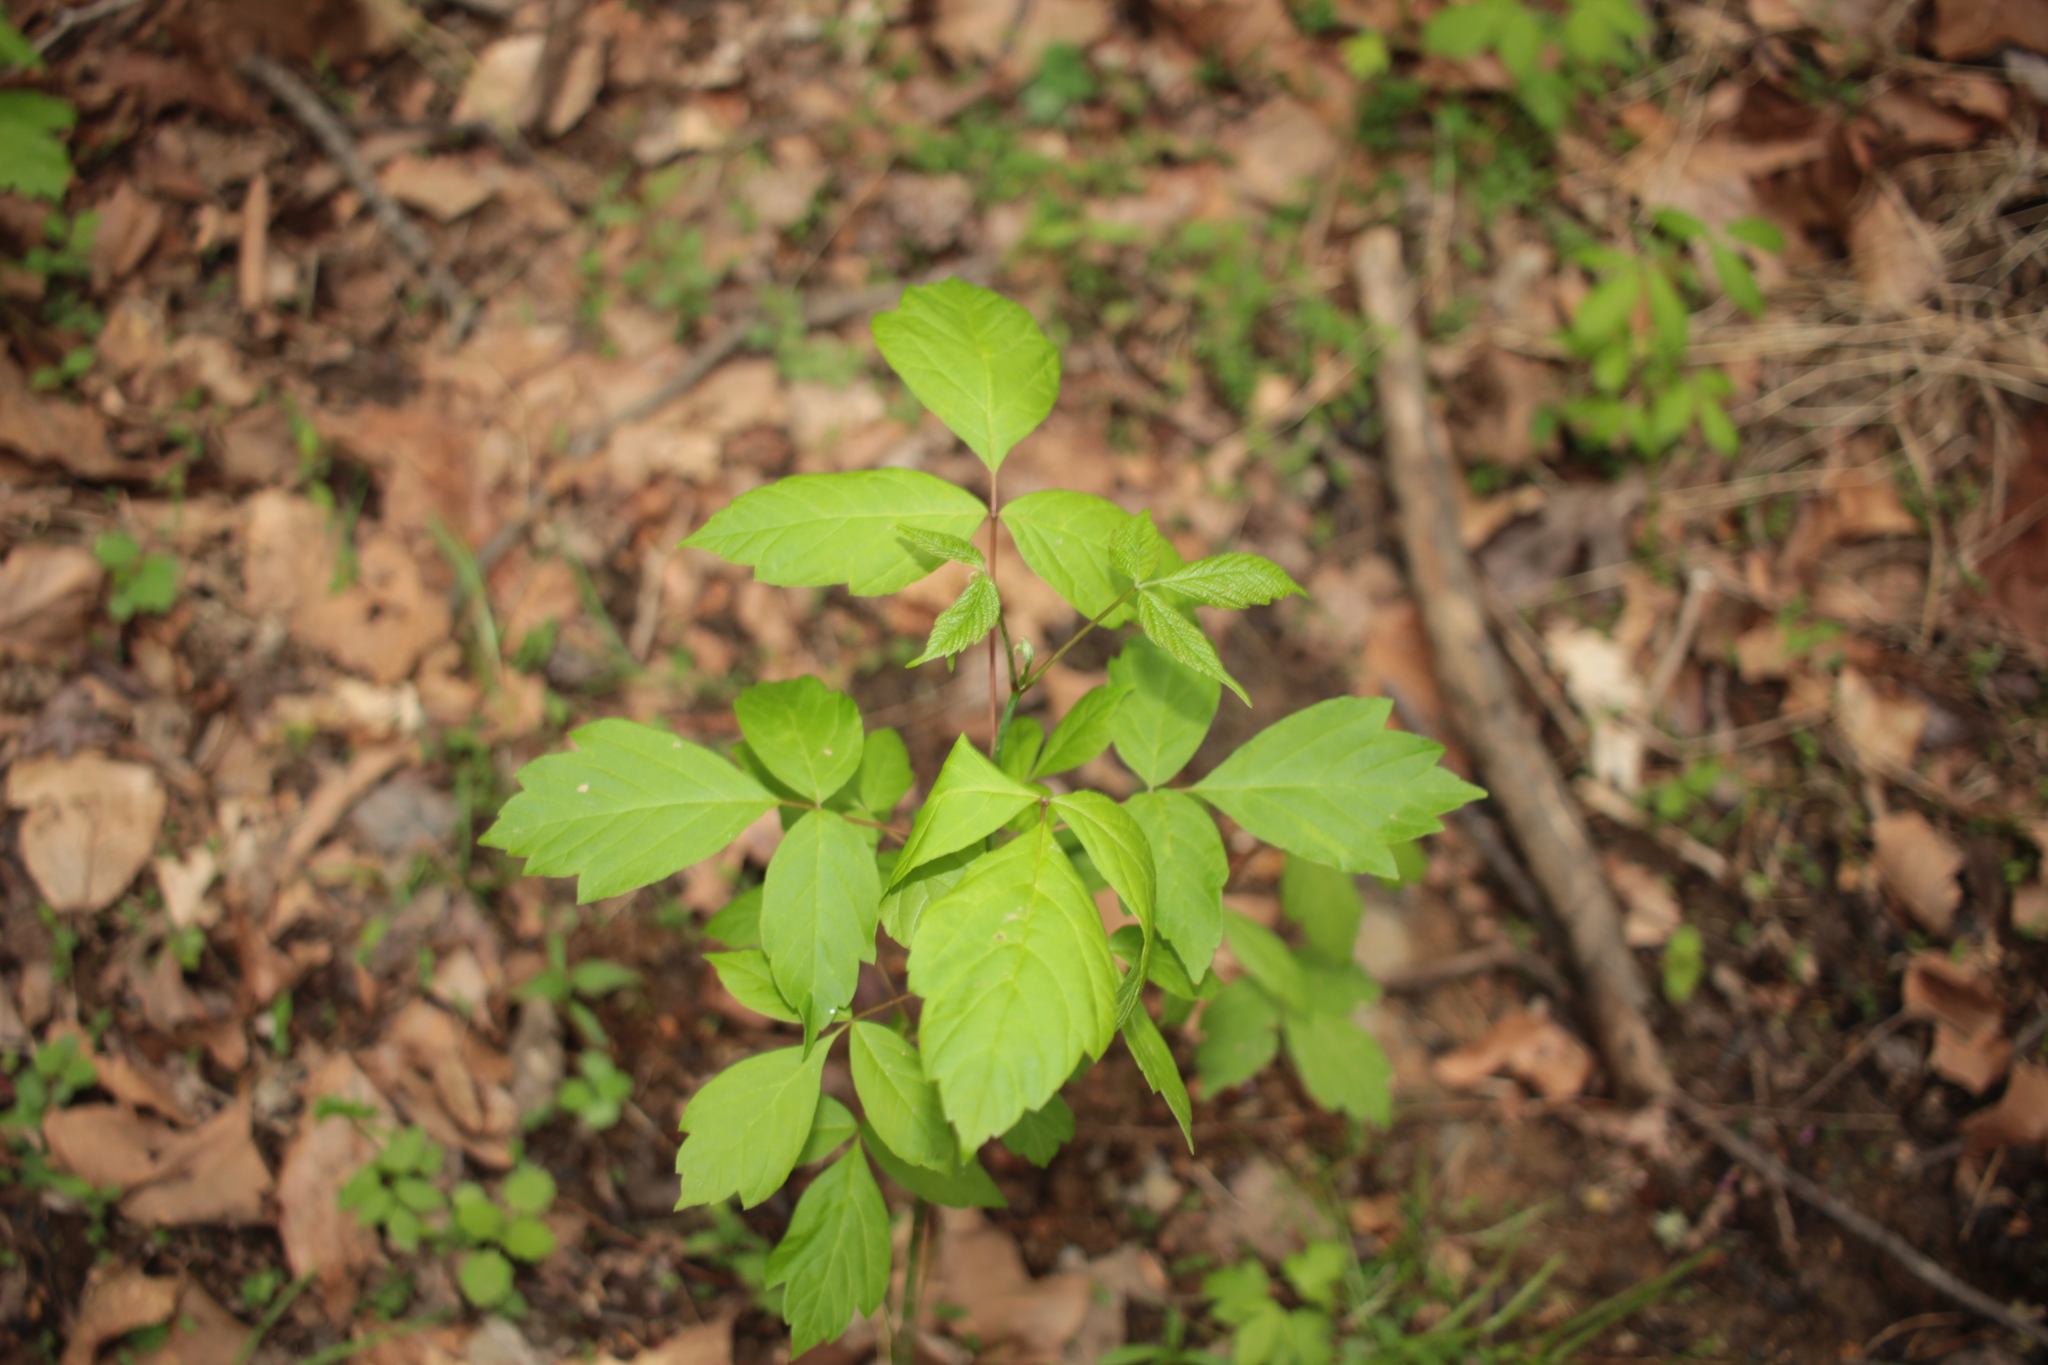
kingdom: Plantae
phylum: Tracheophyta
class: Magnoliopsida
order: Sapindales
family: Sapindaceae
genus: Acer
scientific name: Acer negundo
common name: Ashleaf maple
